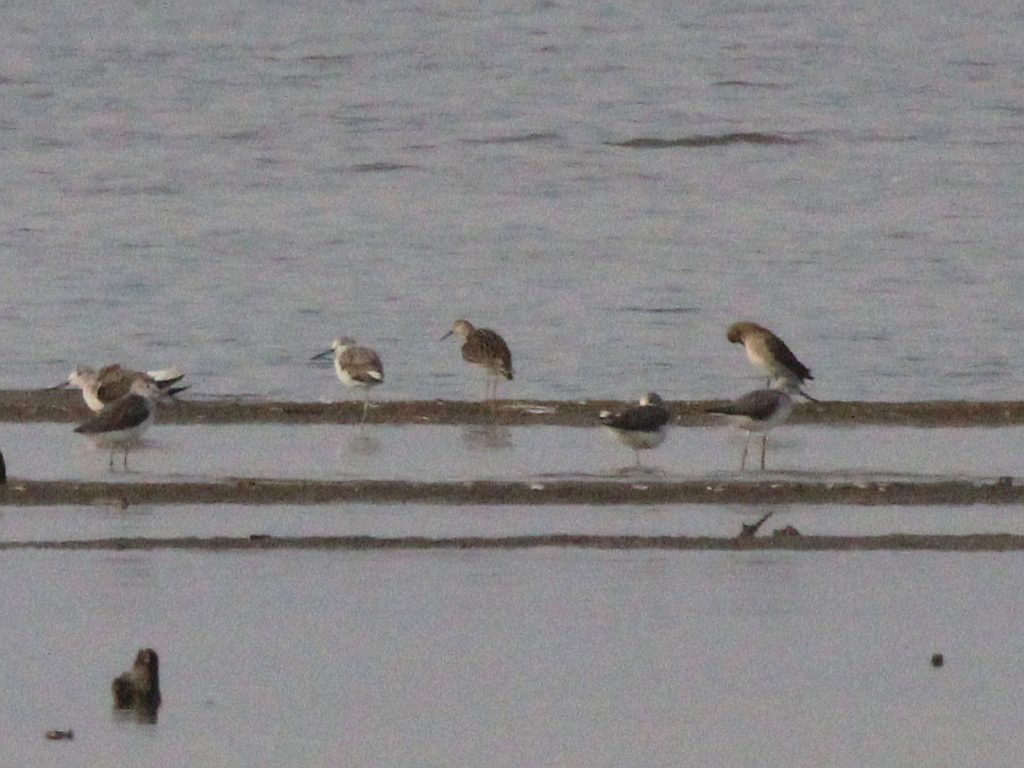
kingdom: Animalia
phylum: Chordata
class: Aves
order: Charadriiformes
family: Scolopacidae
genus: Calidris
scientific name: Calidris pugnax
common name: Ruff
